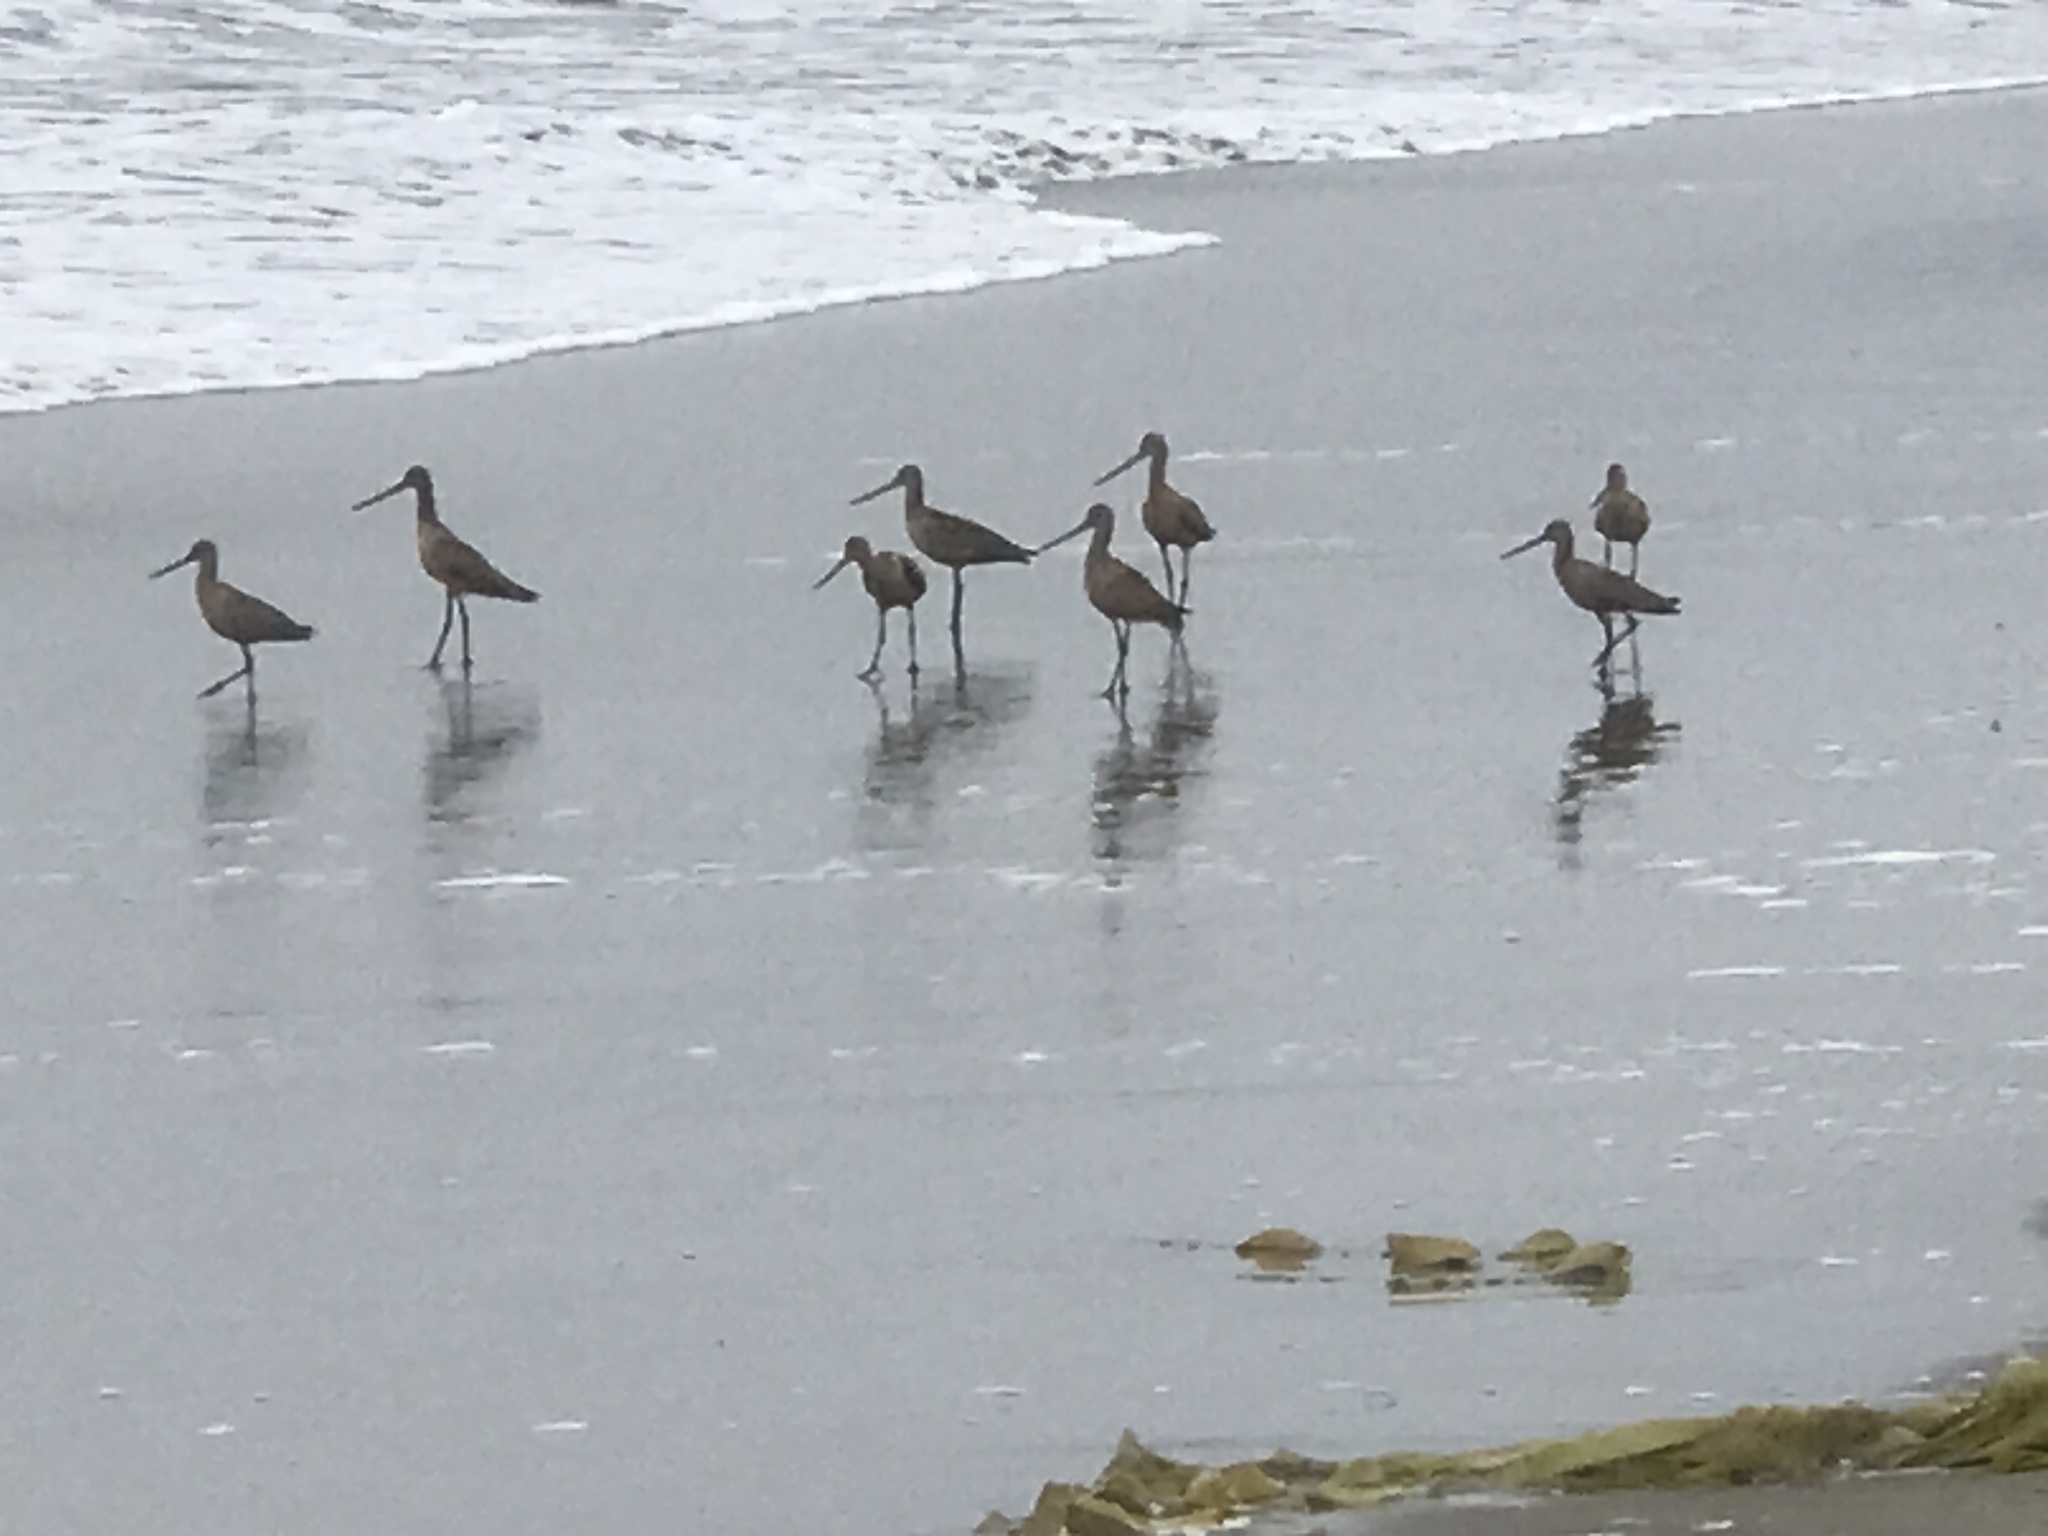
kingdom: Animalia
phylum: Chordata
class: Aves
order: Charadriiformes
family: Scolopacidae
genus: Limosa
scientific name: Limosa fedoa
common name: Marbled godwit
